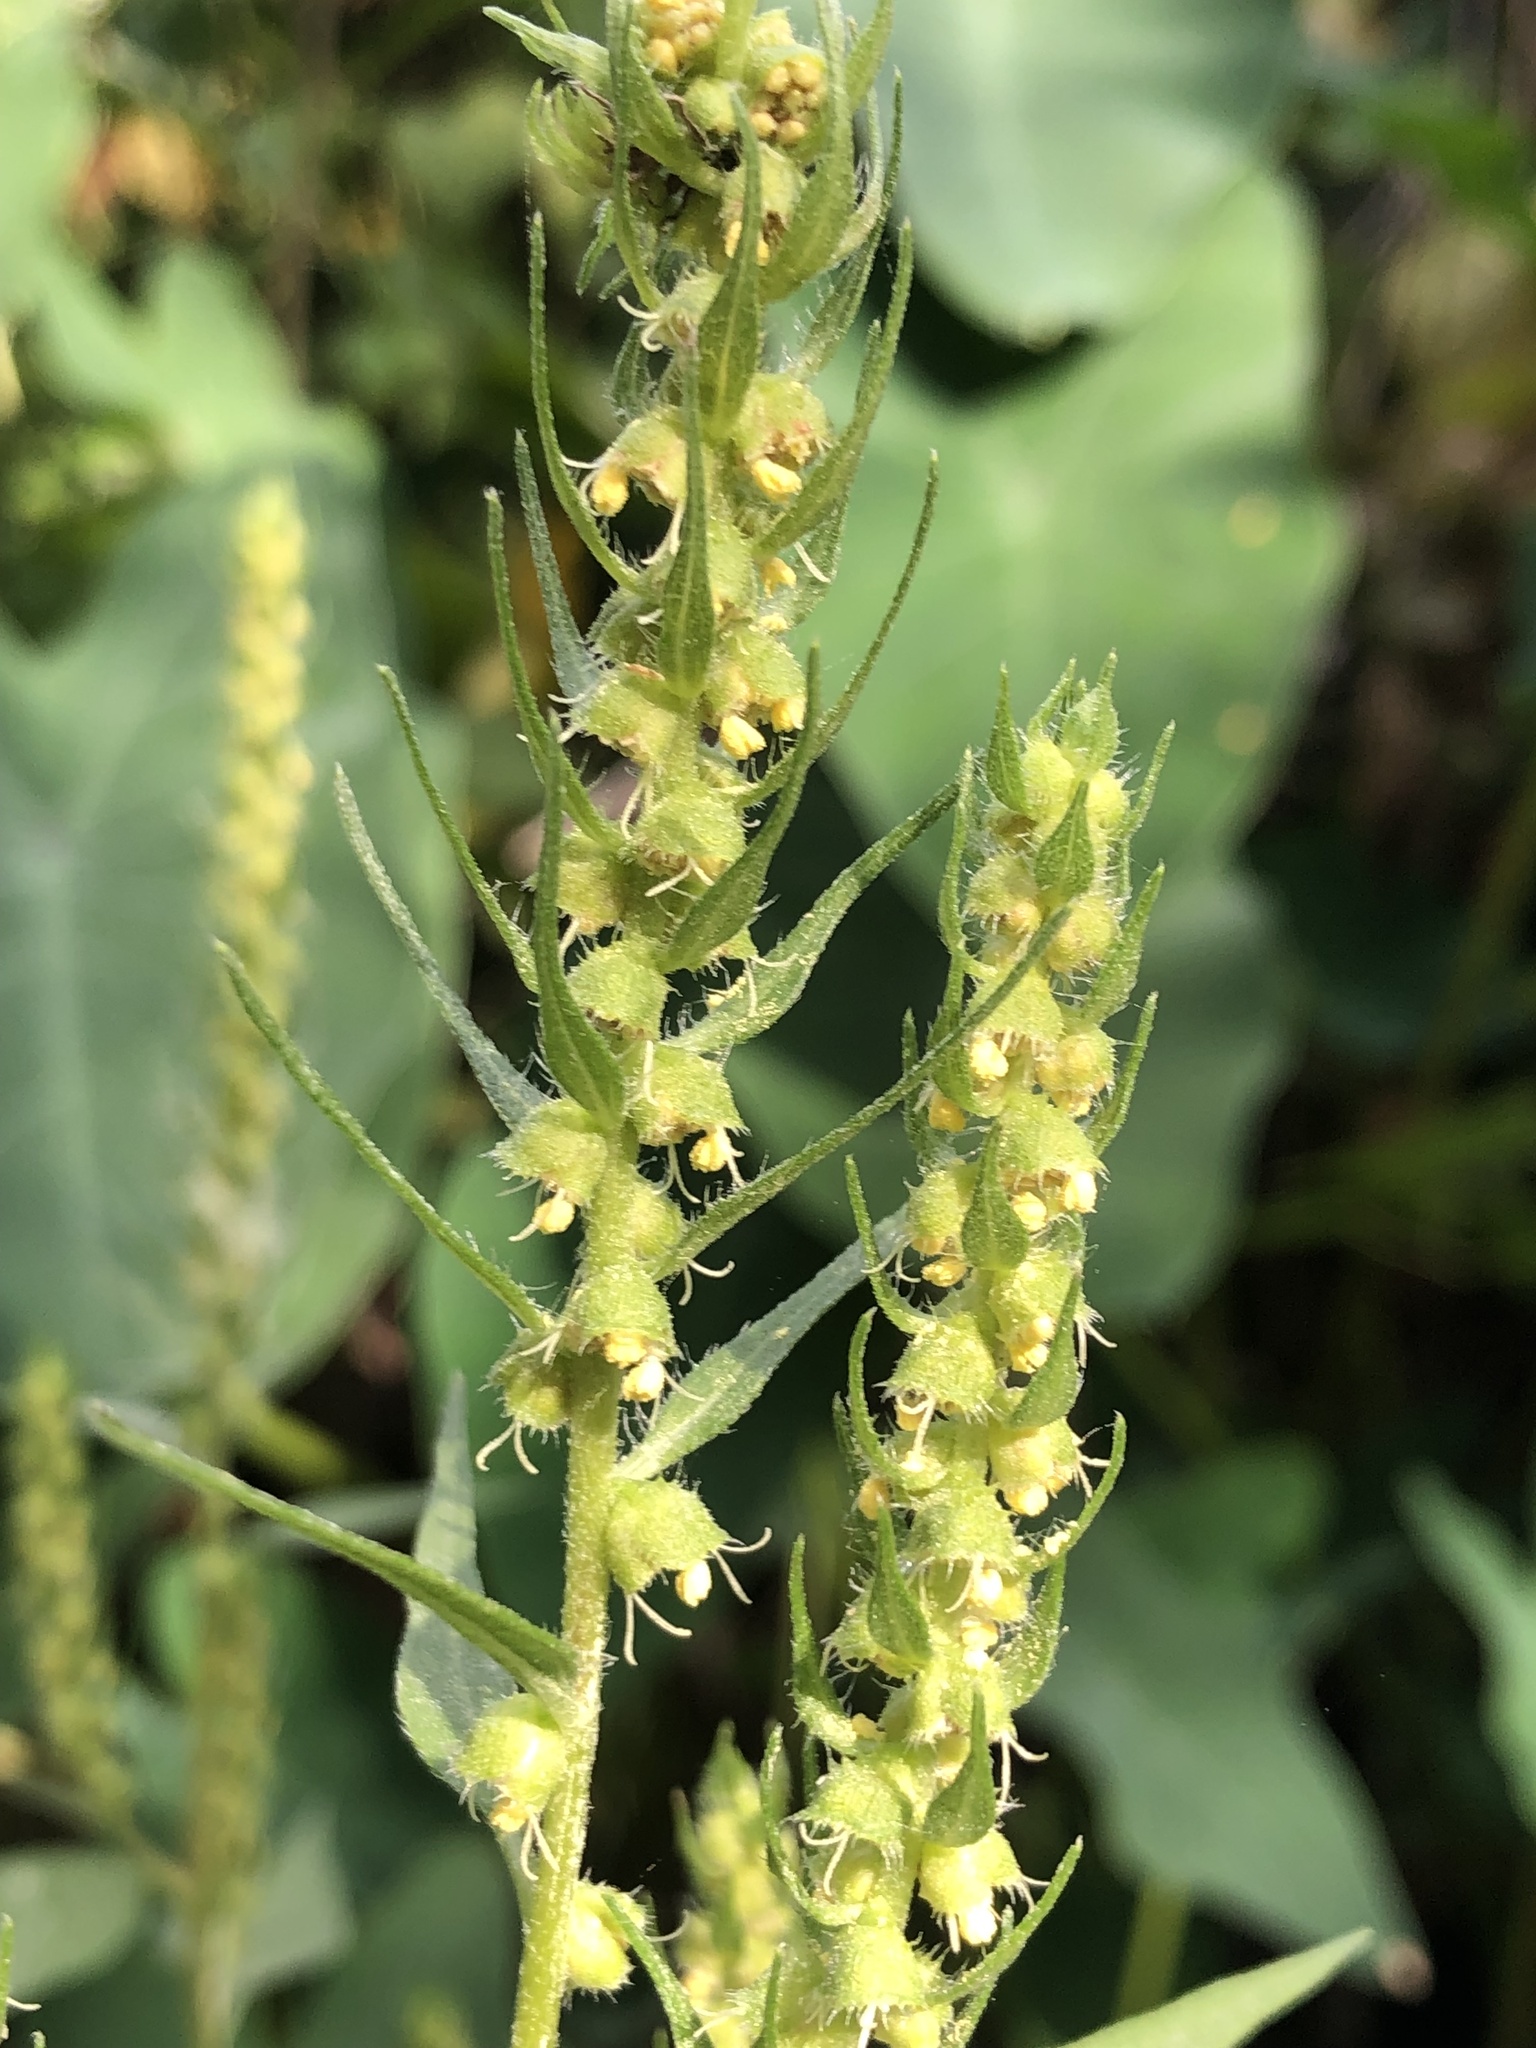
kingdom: Plantae
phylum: Tracheophyta
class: Magnoliopsida
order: Asterales
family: Asteraceae
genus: Iva
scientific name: Iva annua
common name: Marsh-elder
